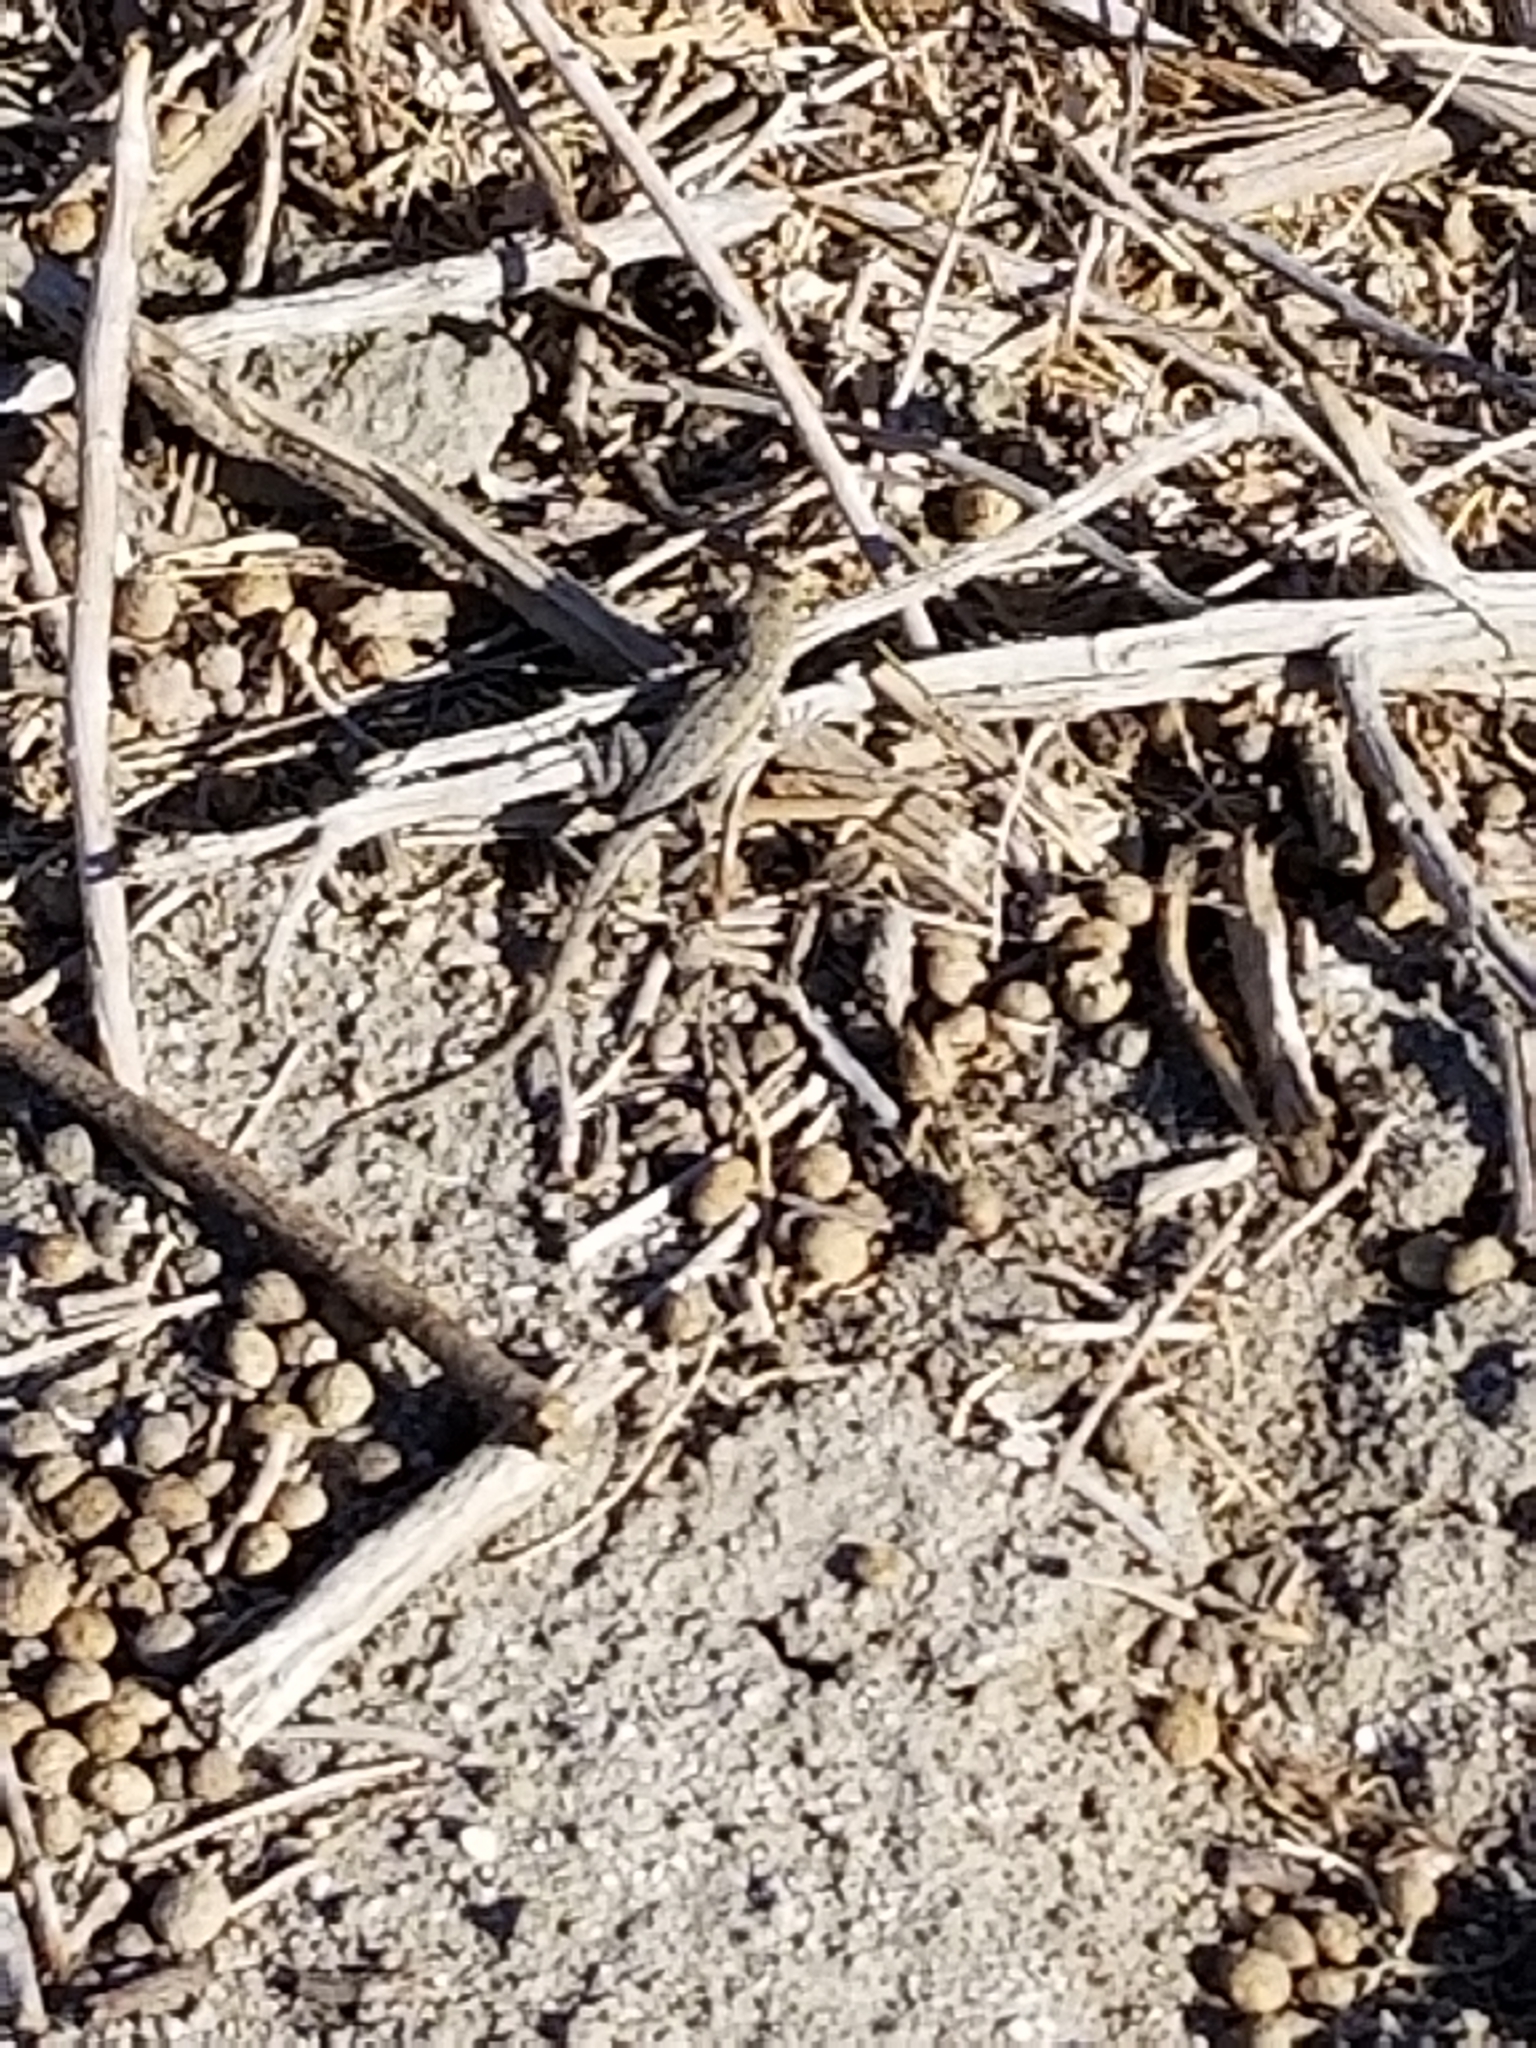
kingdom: Animalia
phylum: Chordata
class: Squamata
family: Phrynosomatidae
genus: Uta
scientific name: Uta stansburiana
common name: Side-blotched lizard
